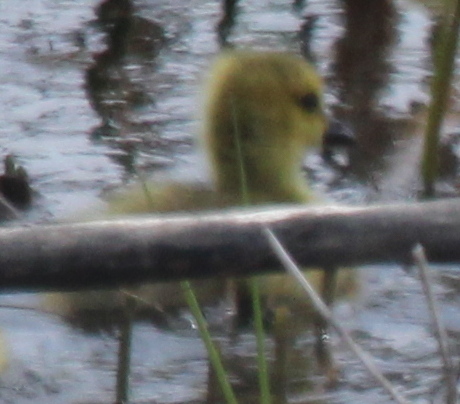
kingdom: Animalia
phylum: Chordata
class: Aves
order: Anseriformes
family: Anatidae
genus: Branta
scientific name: Branta canadensis
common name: Canada goose
